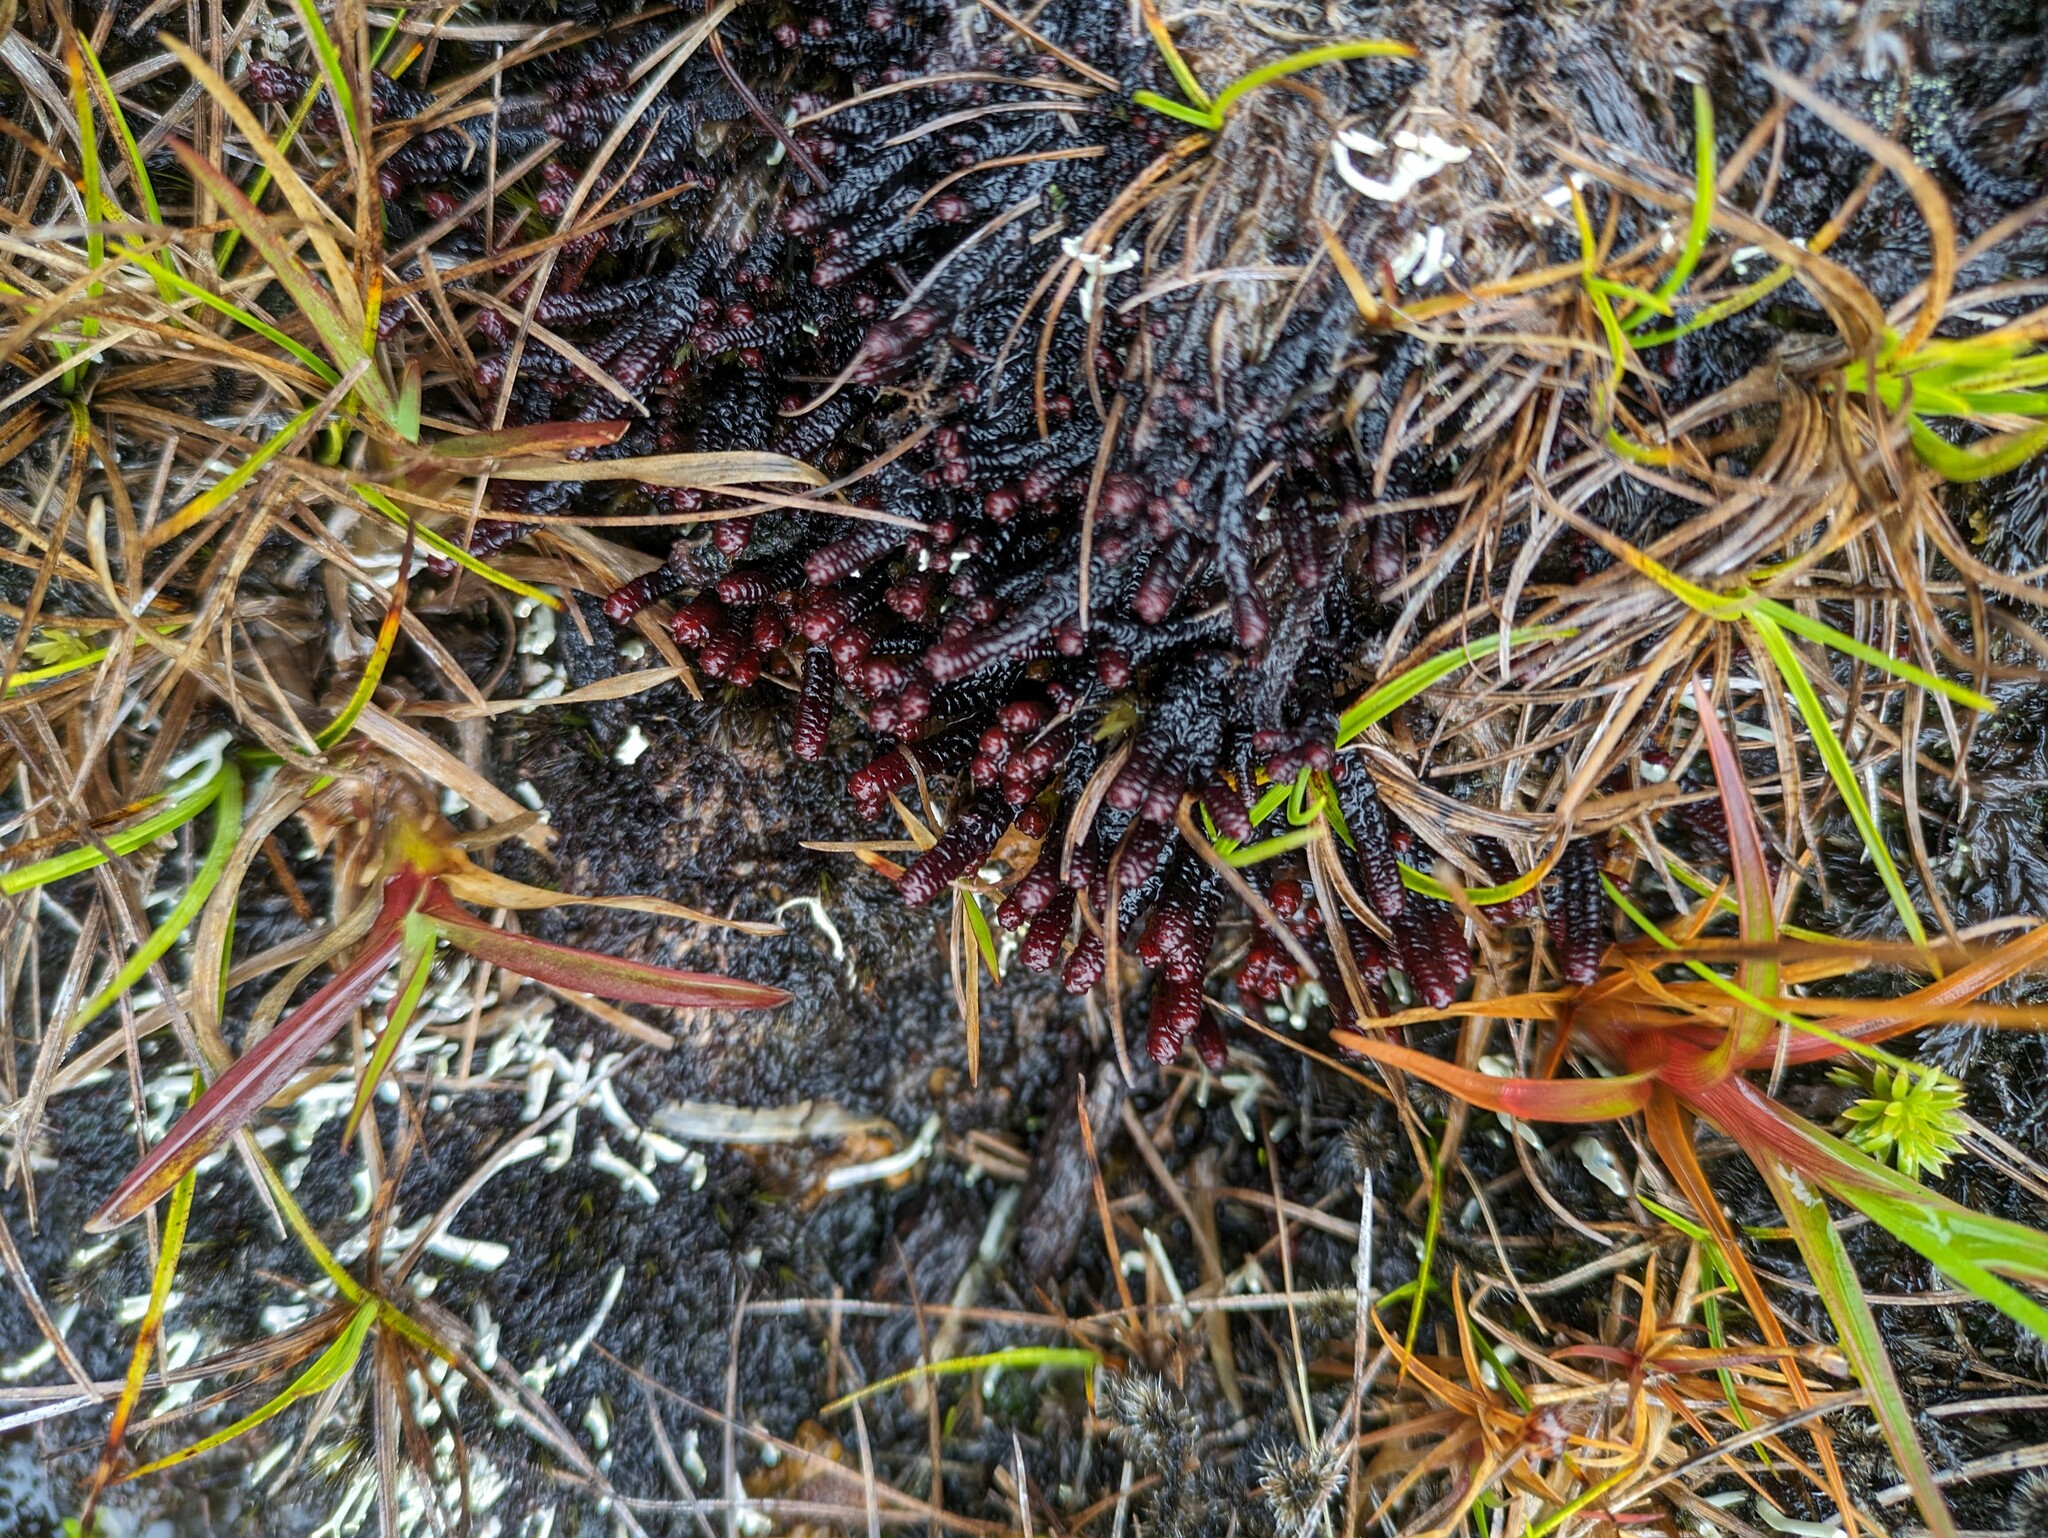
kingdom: Plantae
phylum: Marchantiophyta
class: Jungermanniopsida
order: Pleuroziales
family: Pleuroziaceae
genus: Pleurozia
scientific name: Pleurozia conchifolia
